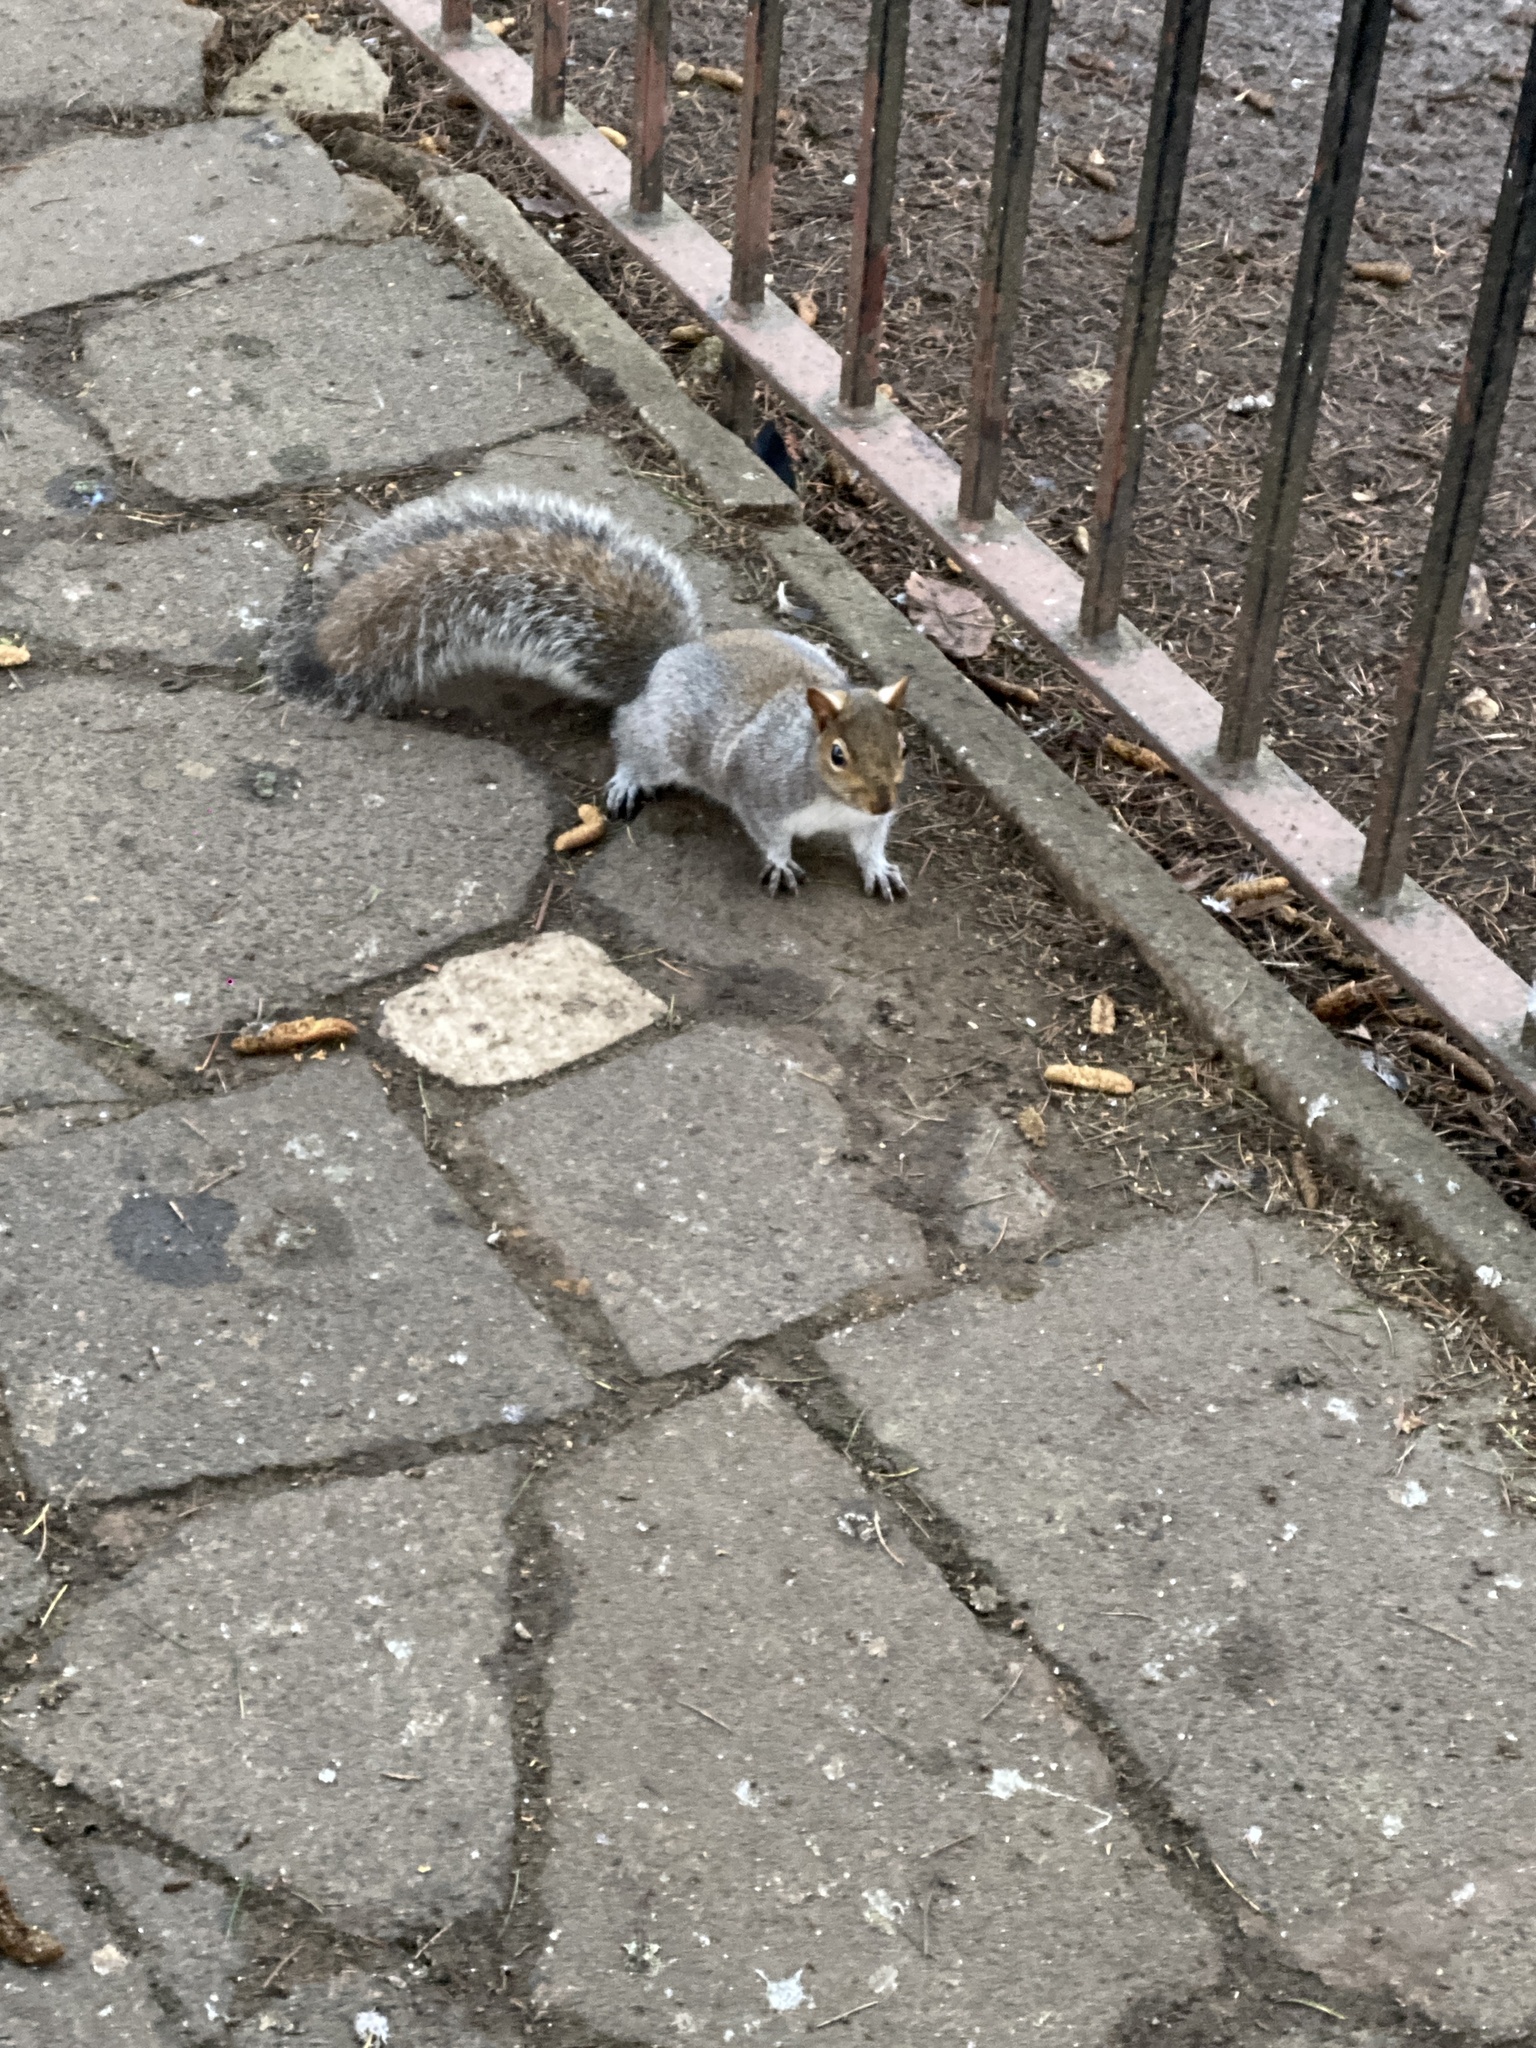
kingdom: Animalia
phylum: Chordata
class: Mammalia
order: Rodentia
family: Sciuridae
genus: Sciurus
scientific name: Sciurus carolinensis
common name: Eastern gray squirrel
